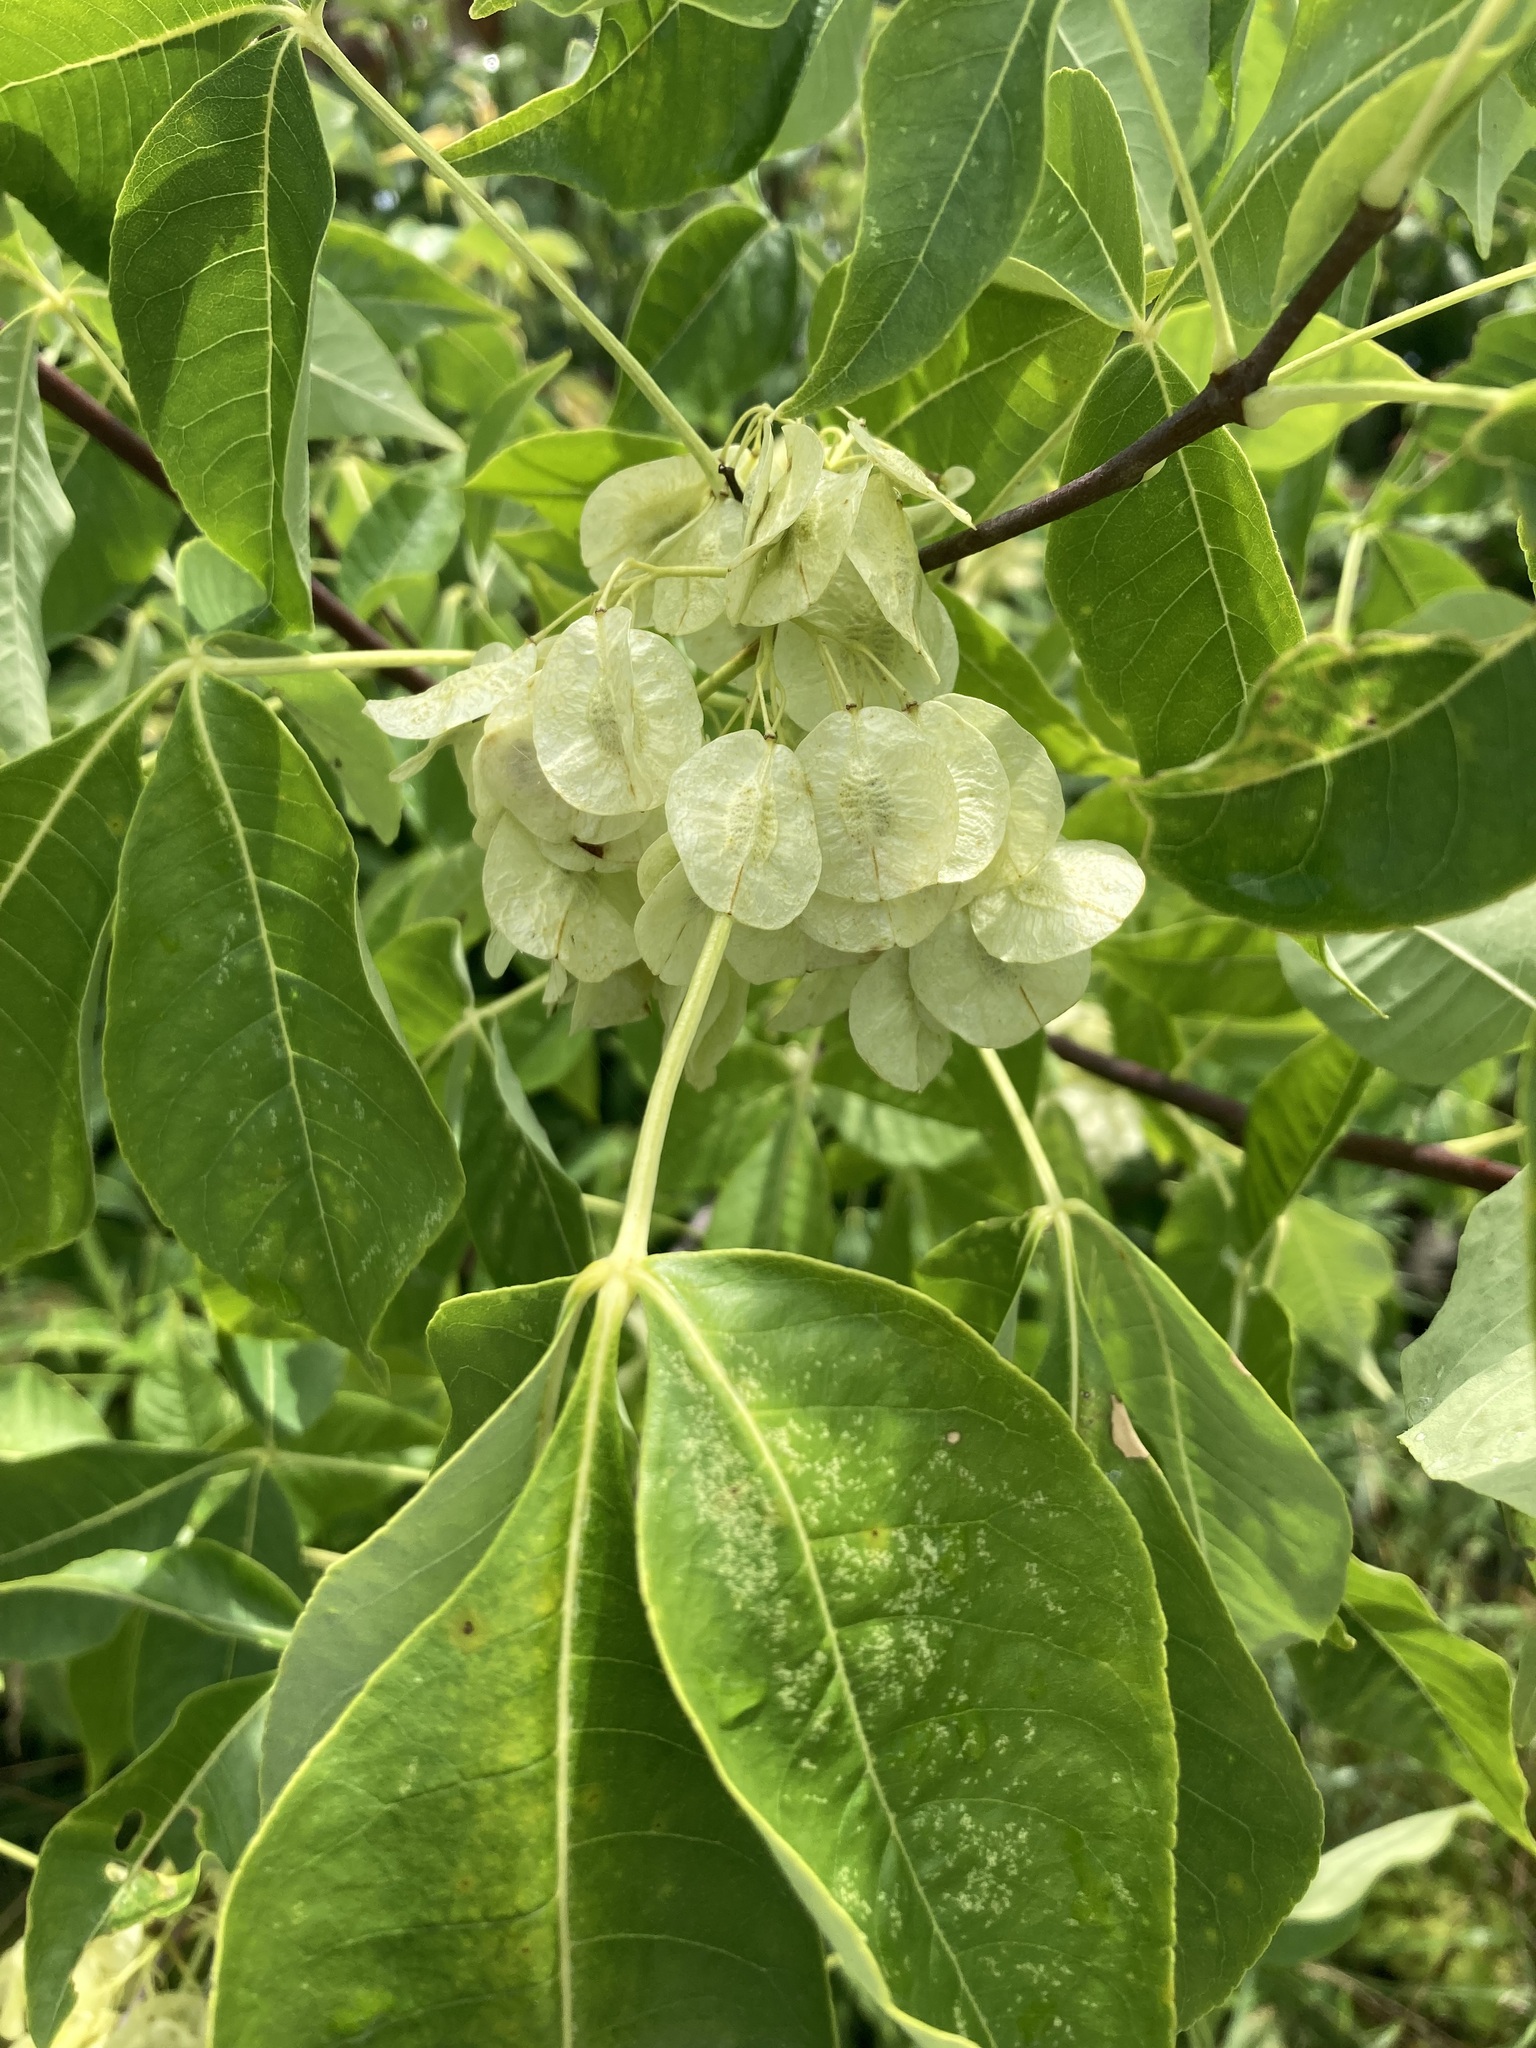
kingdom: Plantae
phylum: Tracheophyta
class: Magnoliopsida
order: Sapindales
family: Rutaceae
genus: Ptelea
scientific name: Ptelea trifoliata
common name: Common hop-tree
